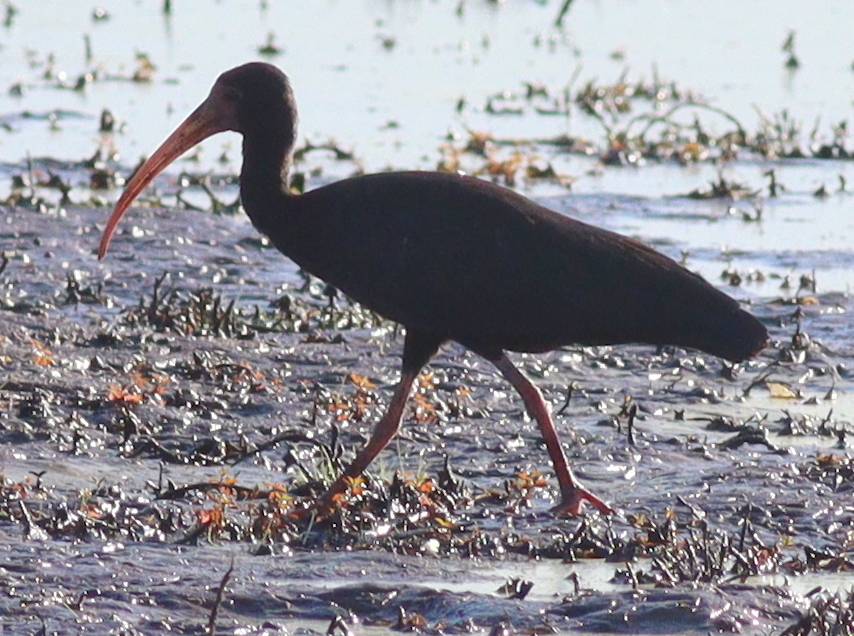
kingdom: Animalia
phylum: Chordata
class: Aves
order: Pelecaniformes
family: Threskiornithidae
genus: Phimosus
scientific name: Phimosus infuscatus
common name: Bare-faced ibis
